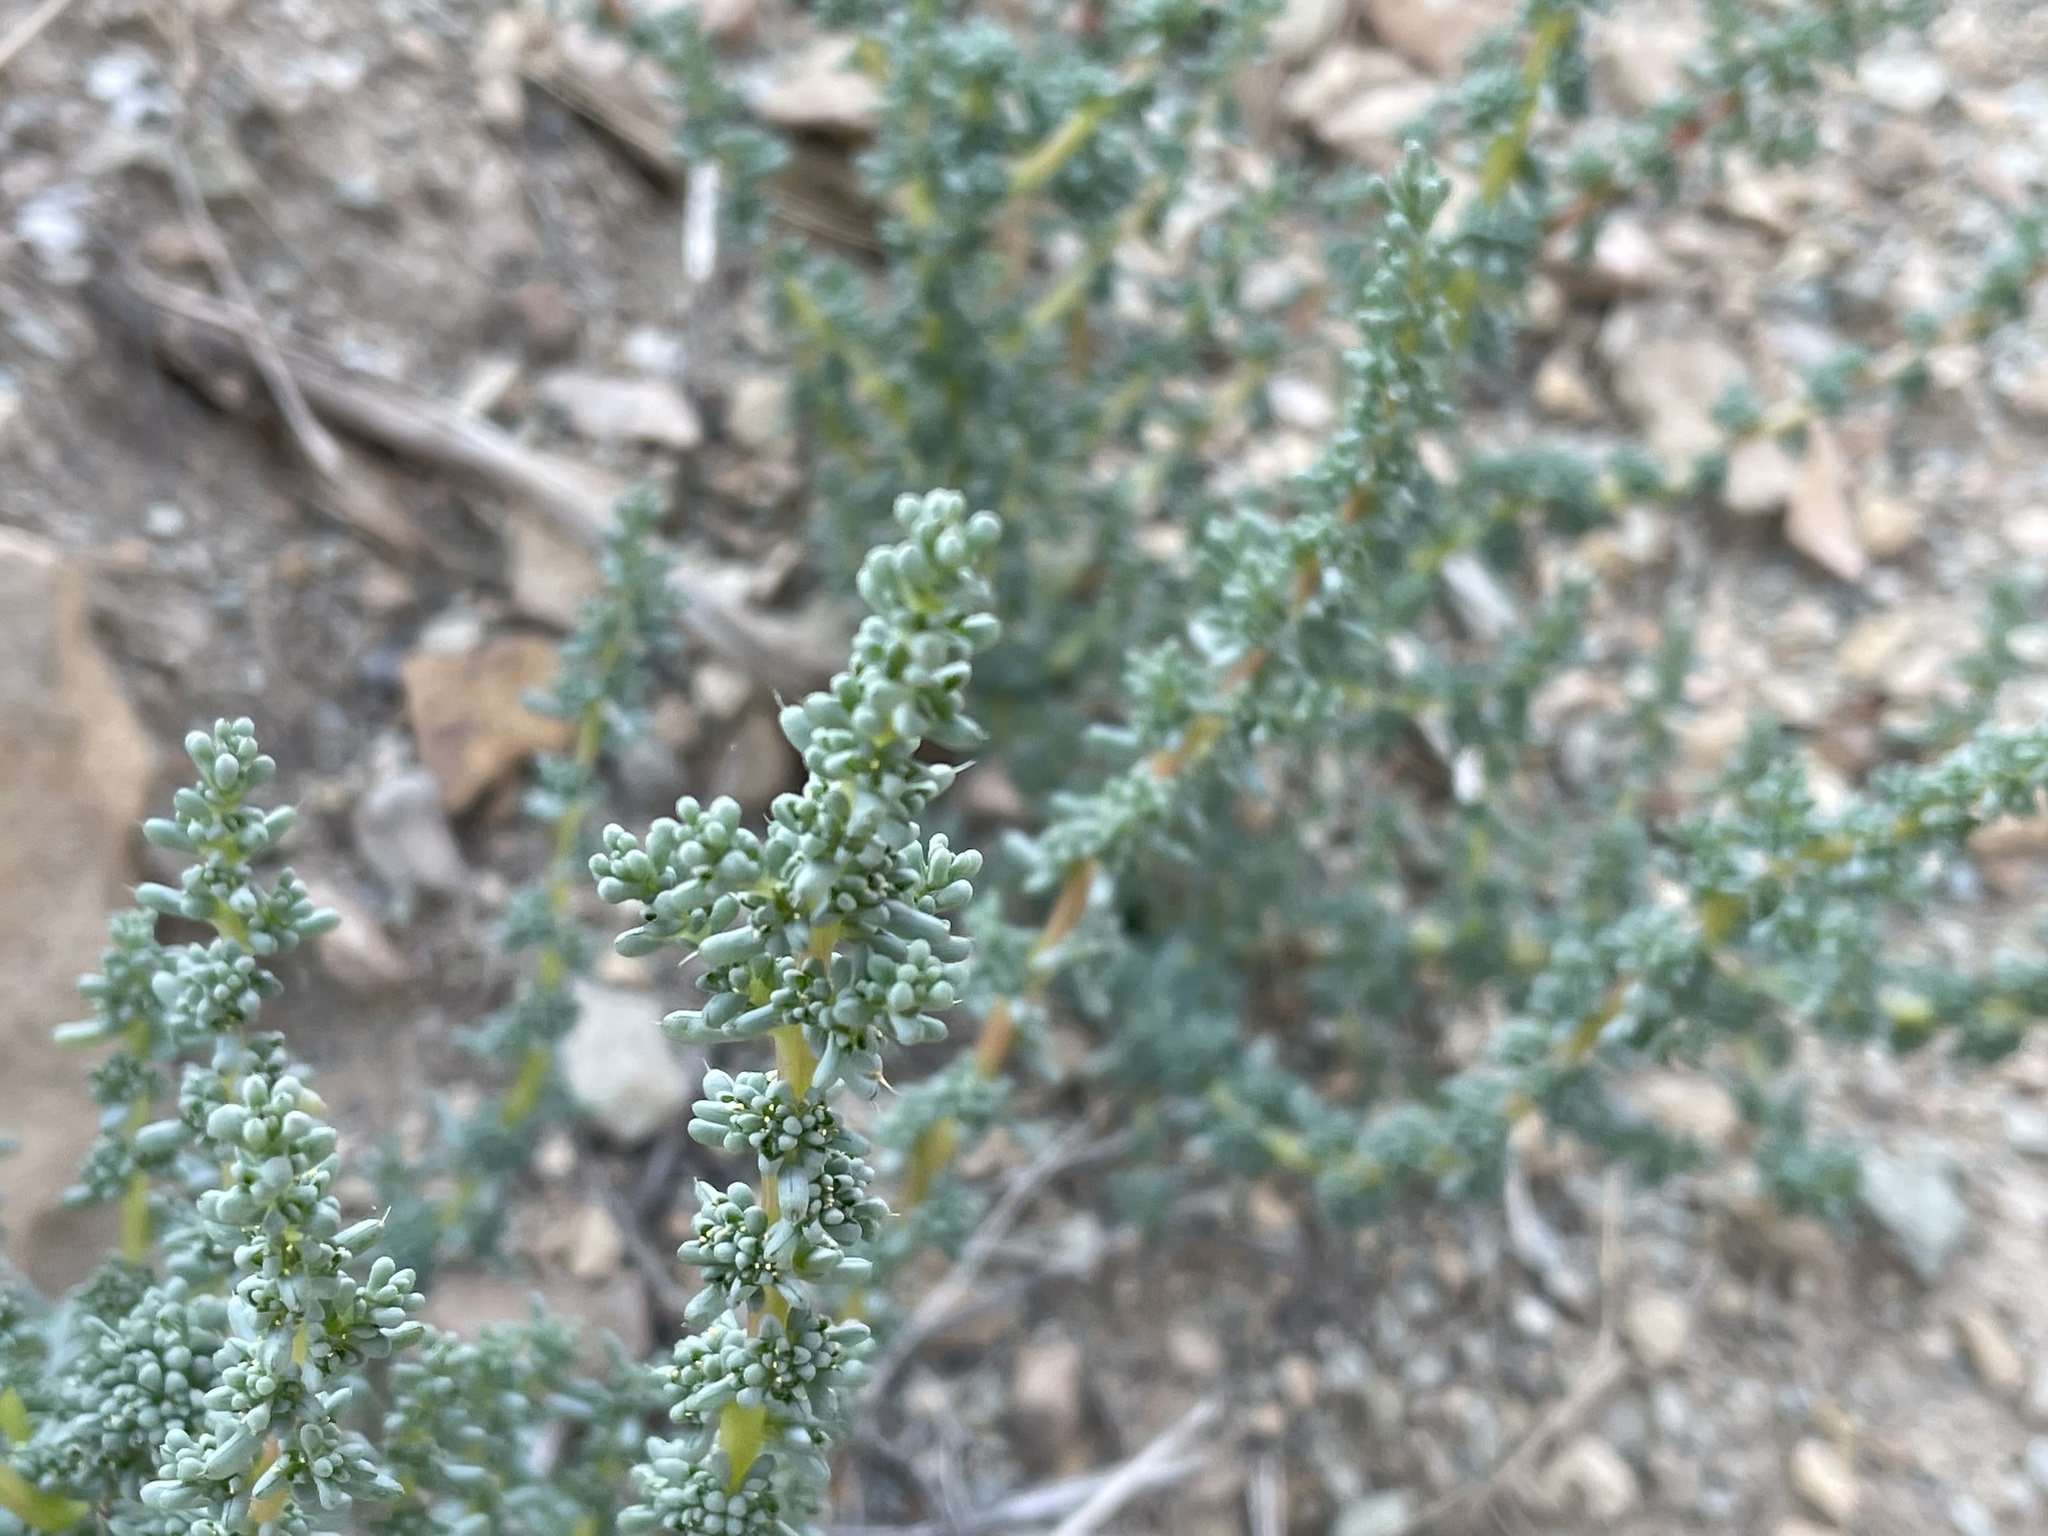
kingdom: Plantae
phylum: Tracheophyta
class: Magnoliopsida
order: Caryophyllales
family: Amaranthaceae
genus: Halogeton
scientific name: Halogeton glomeratus
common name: Saltlover
